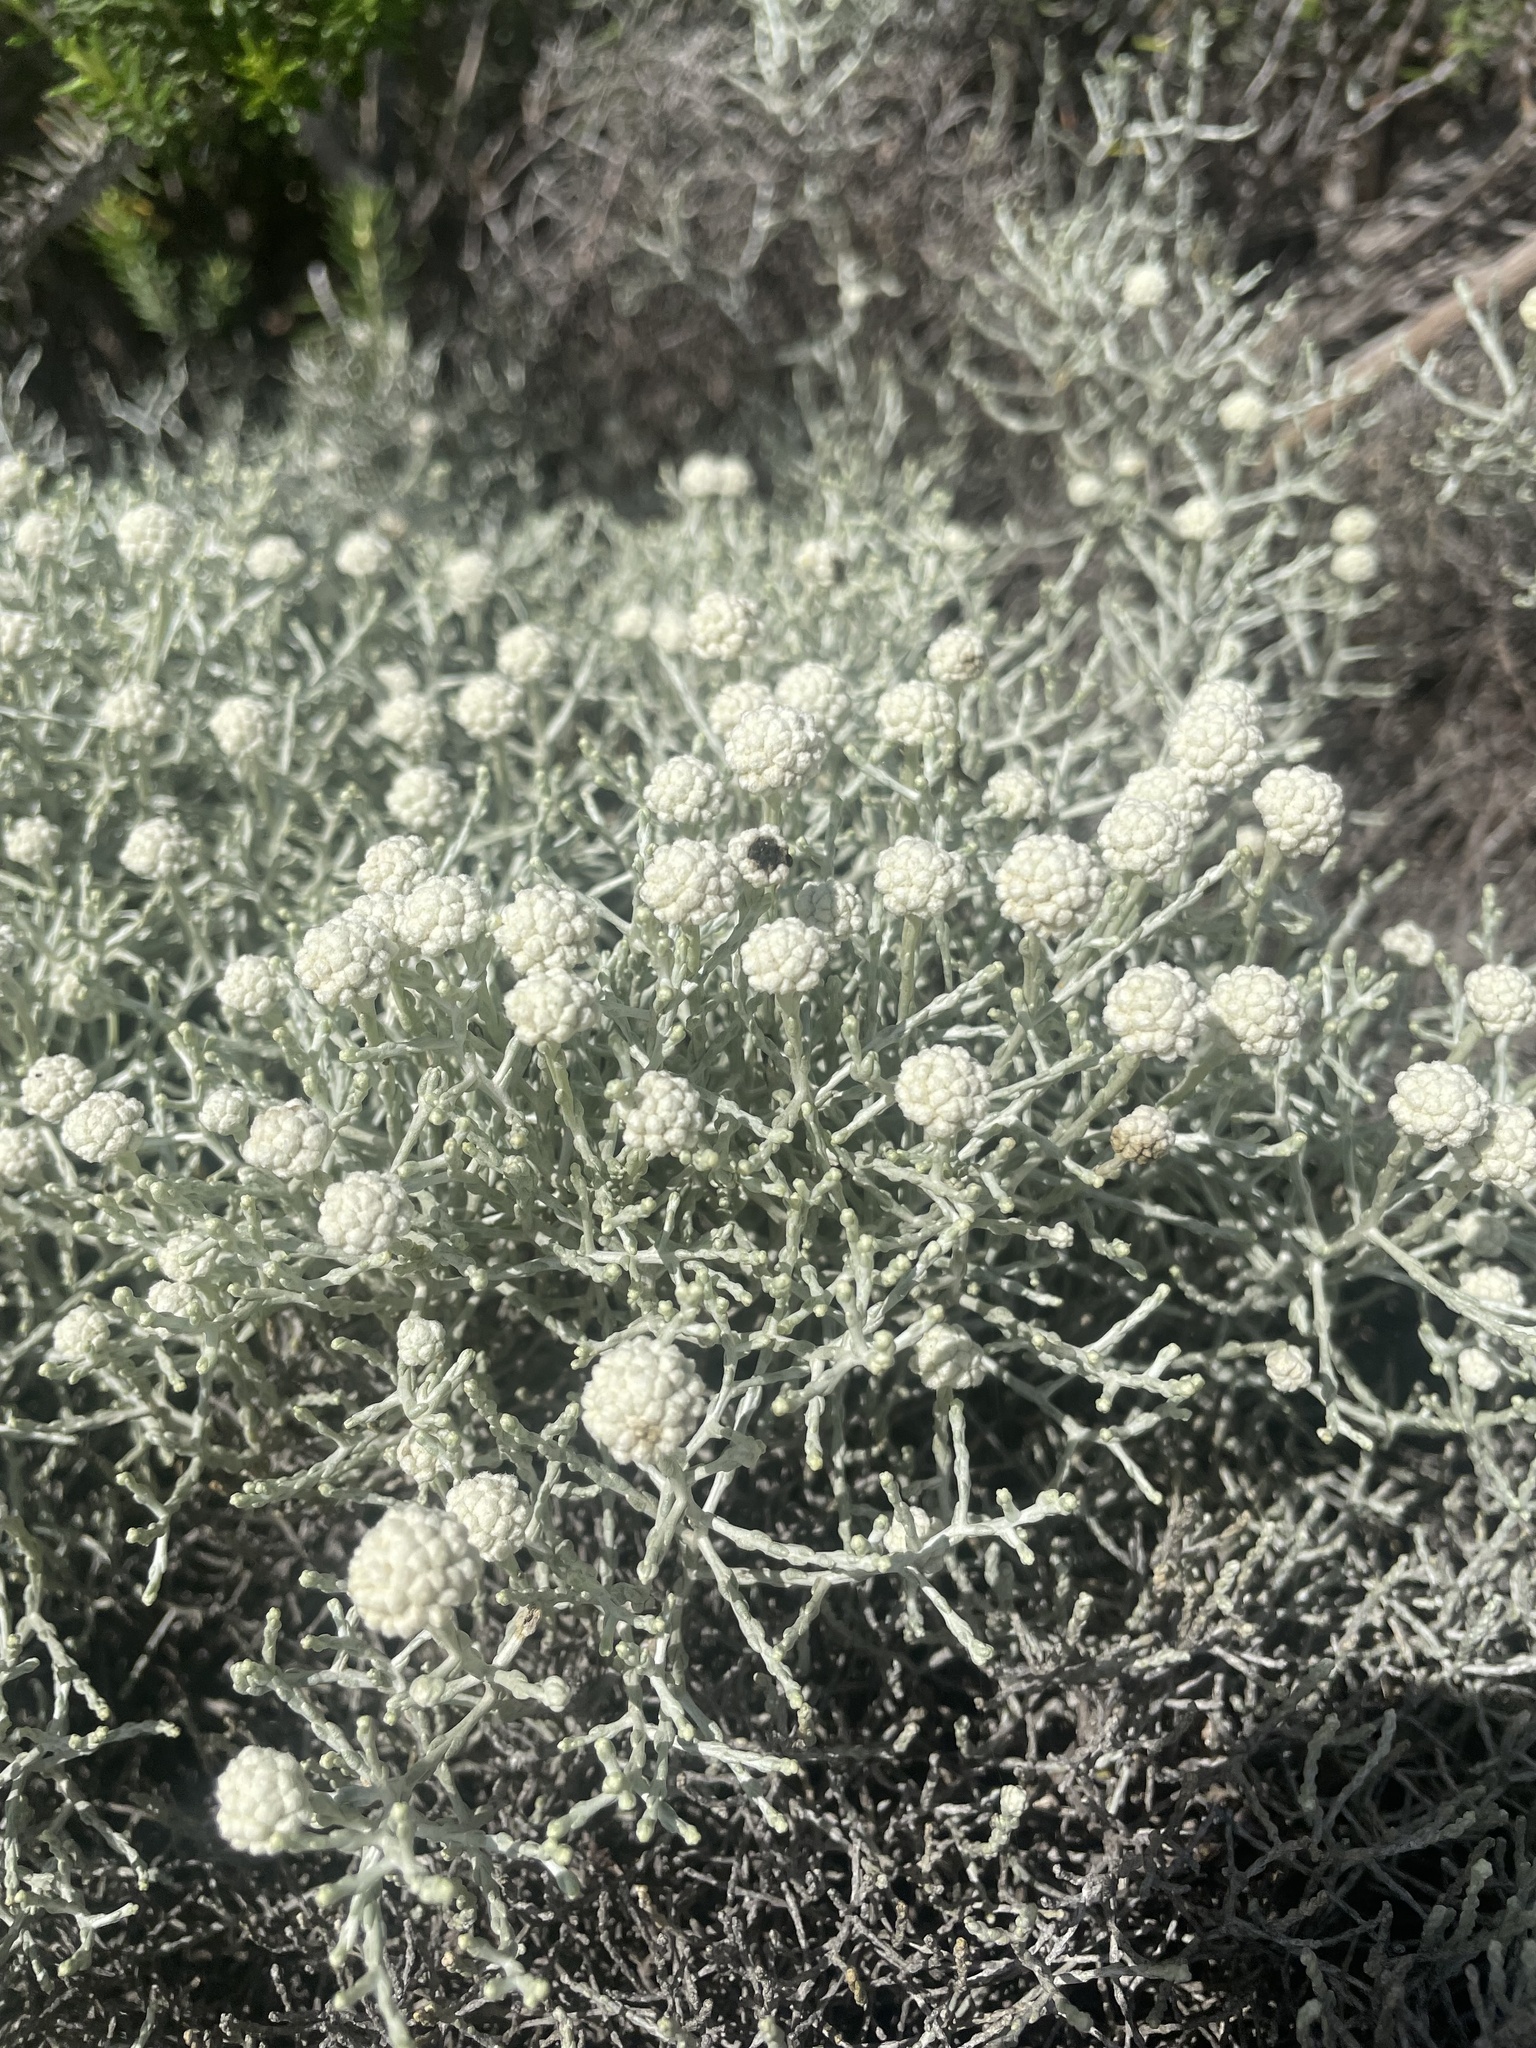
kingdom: Plantae
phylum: Tracheophyta
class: Magnoliopsida
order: Asterales
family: Asteraceae
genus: Calocephalus
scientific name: Calocephalus brownii
